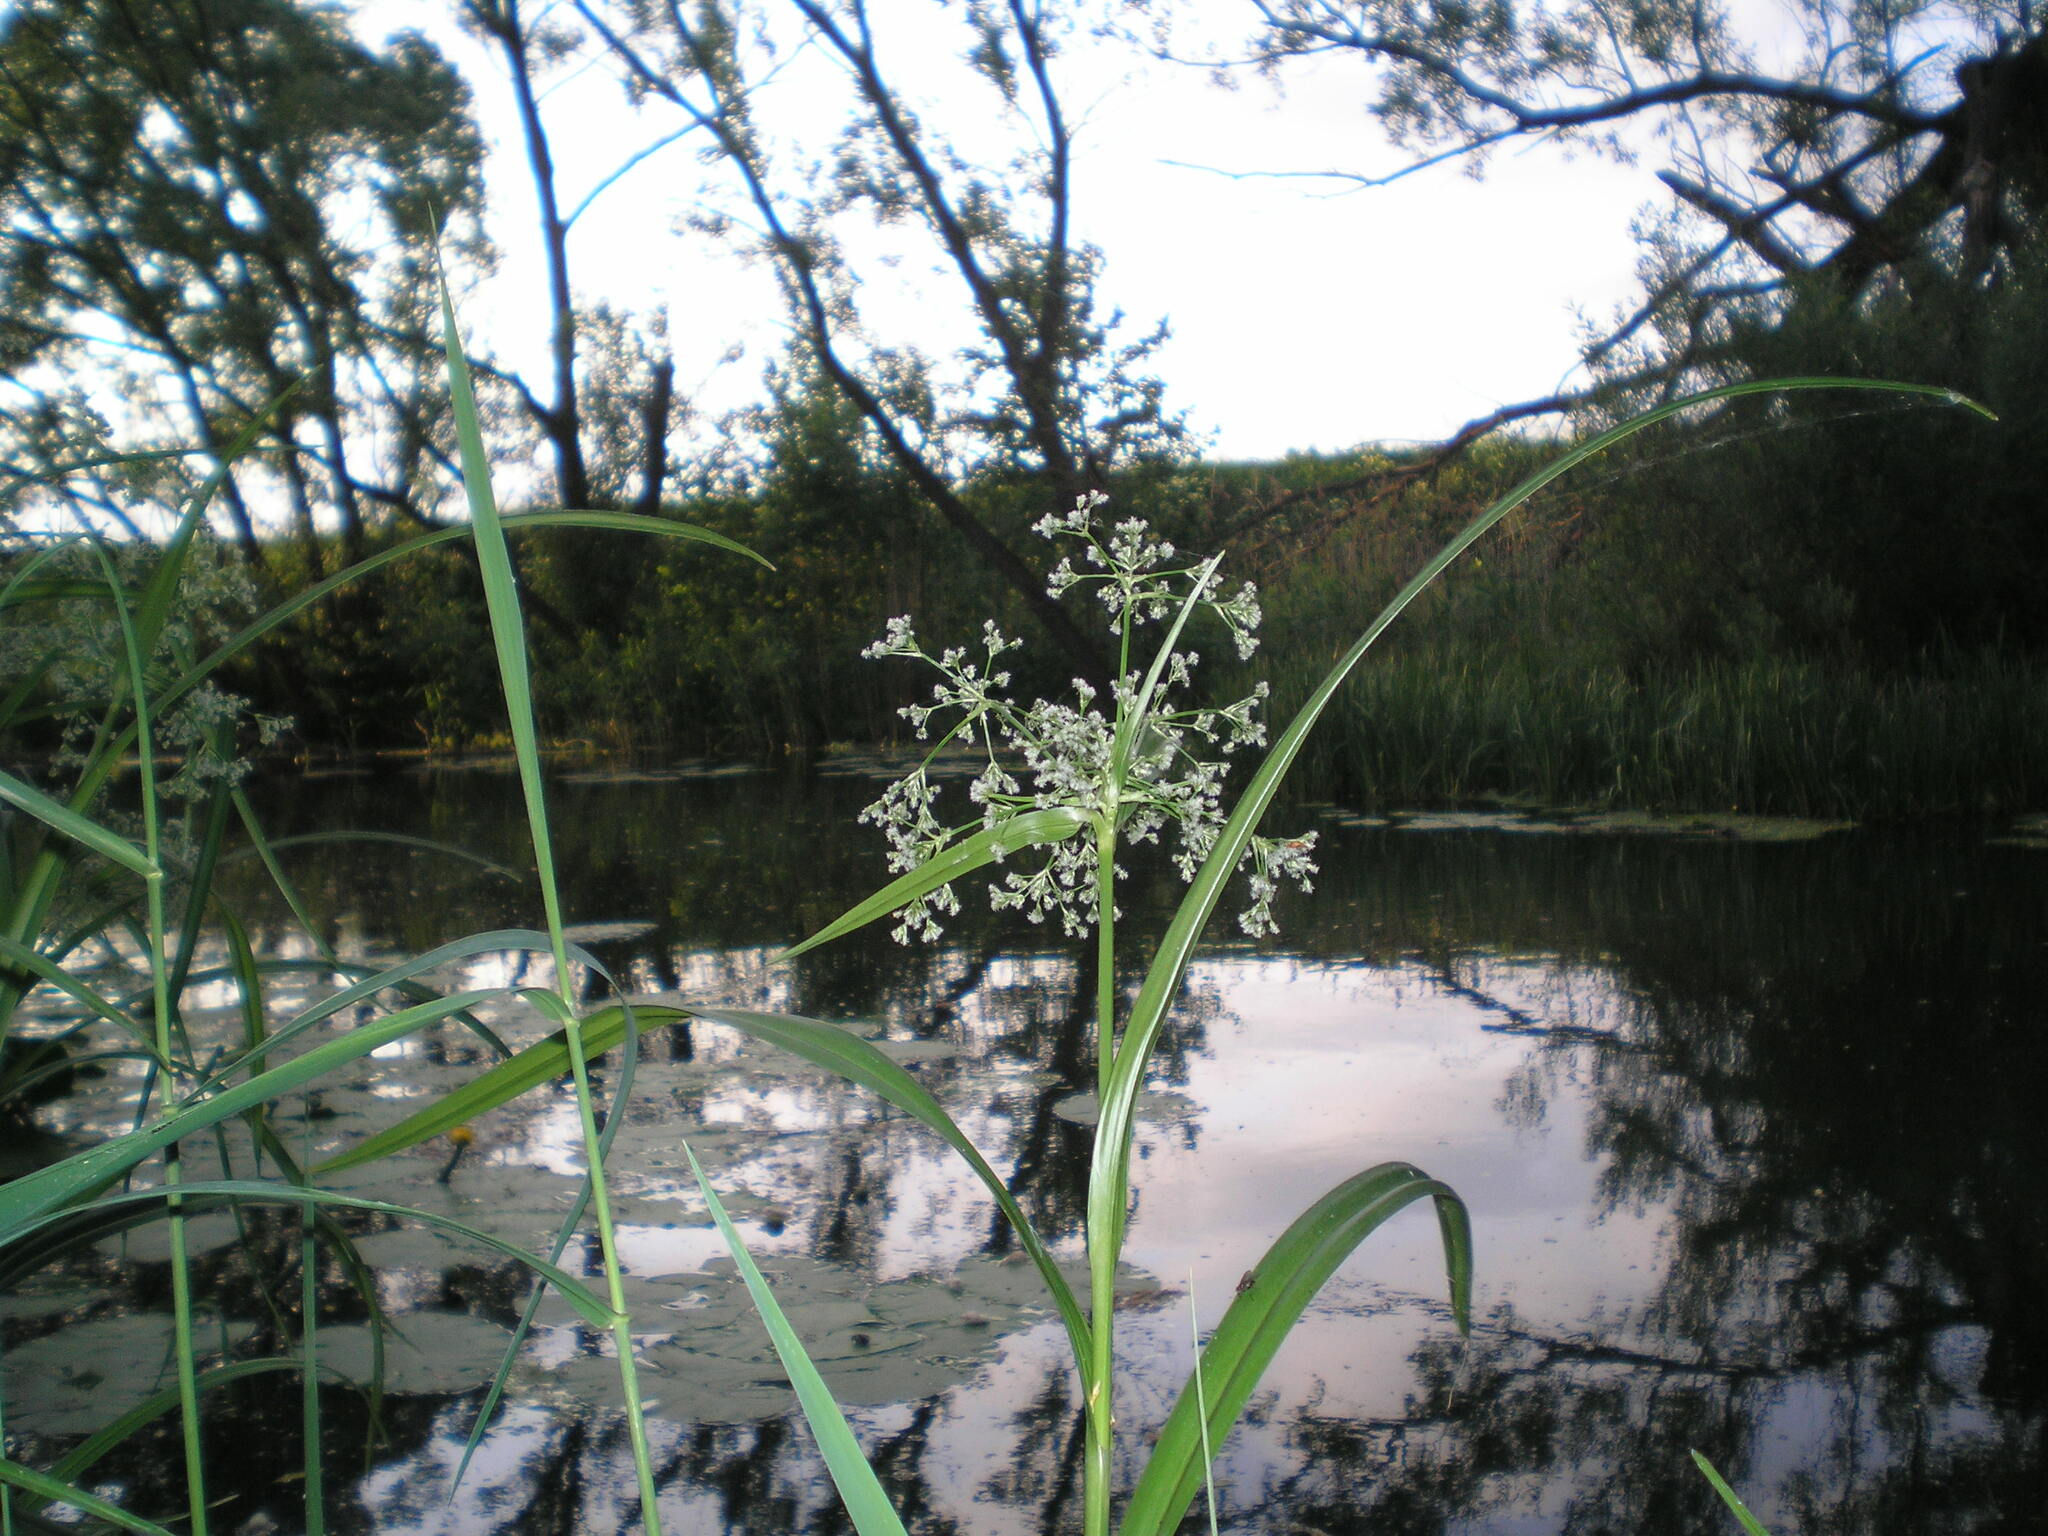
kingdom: Plantae
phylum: Tracheophyta
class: Liliopsida
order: Poales
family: Cyperaceae
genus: Scirpus
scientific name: Scirpus sylvaticus
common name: Wood club-rush
